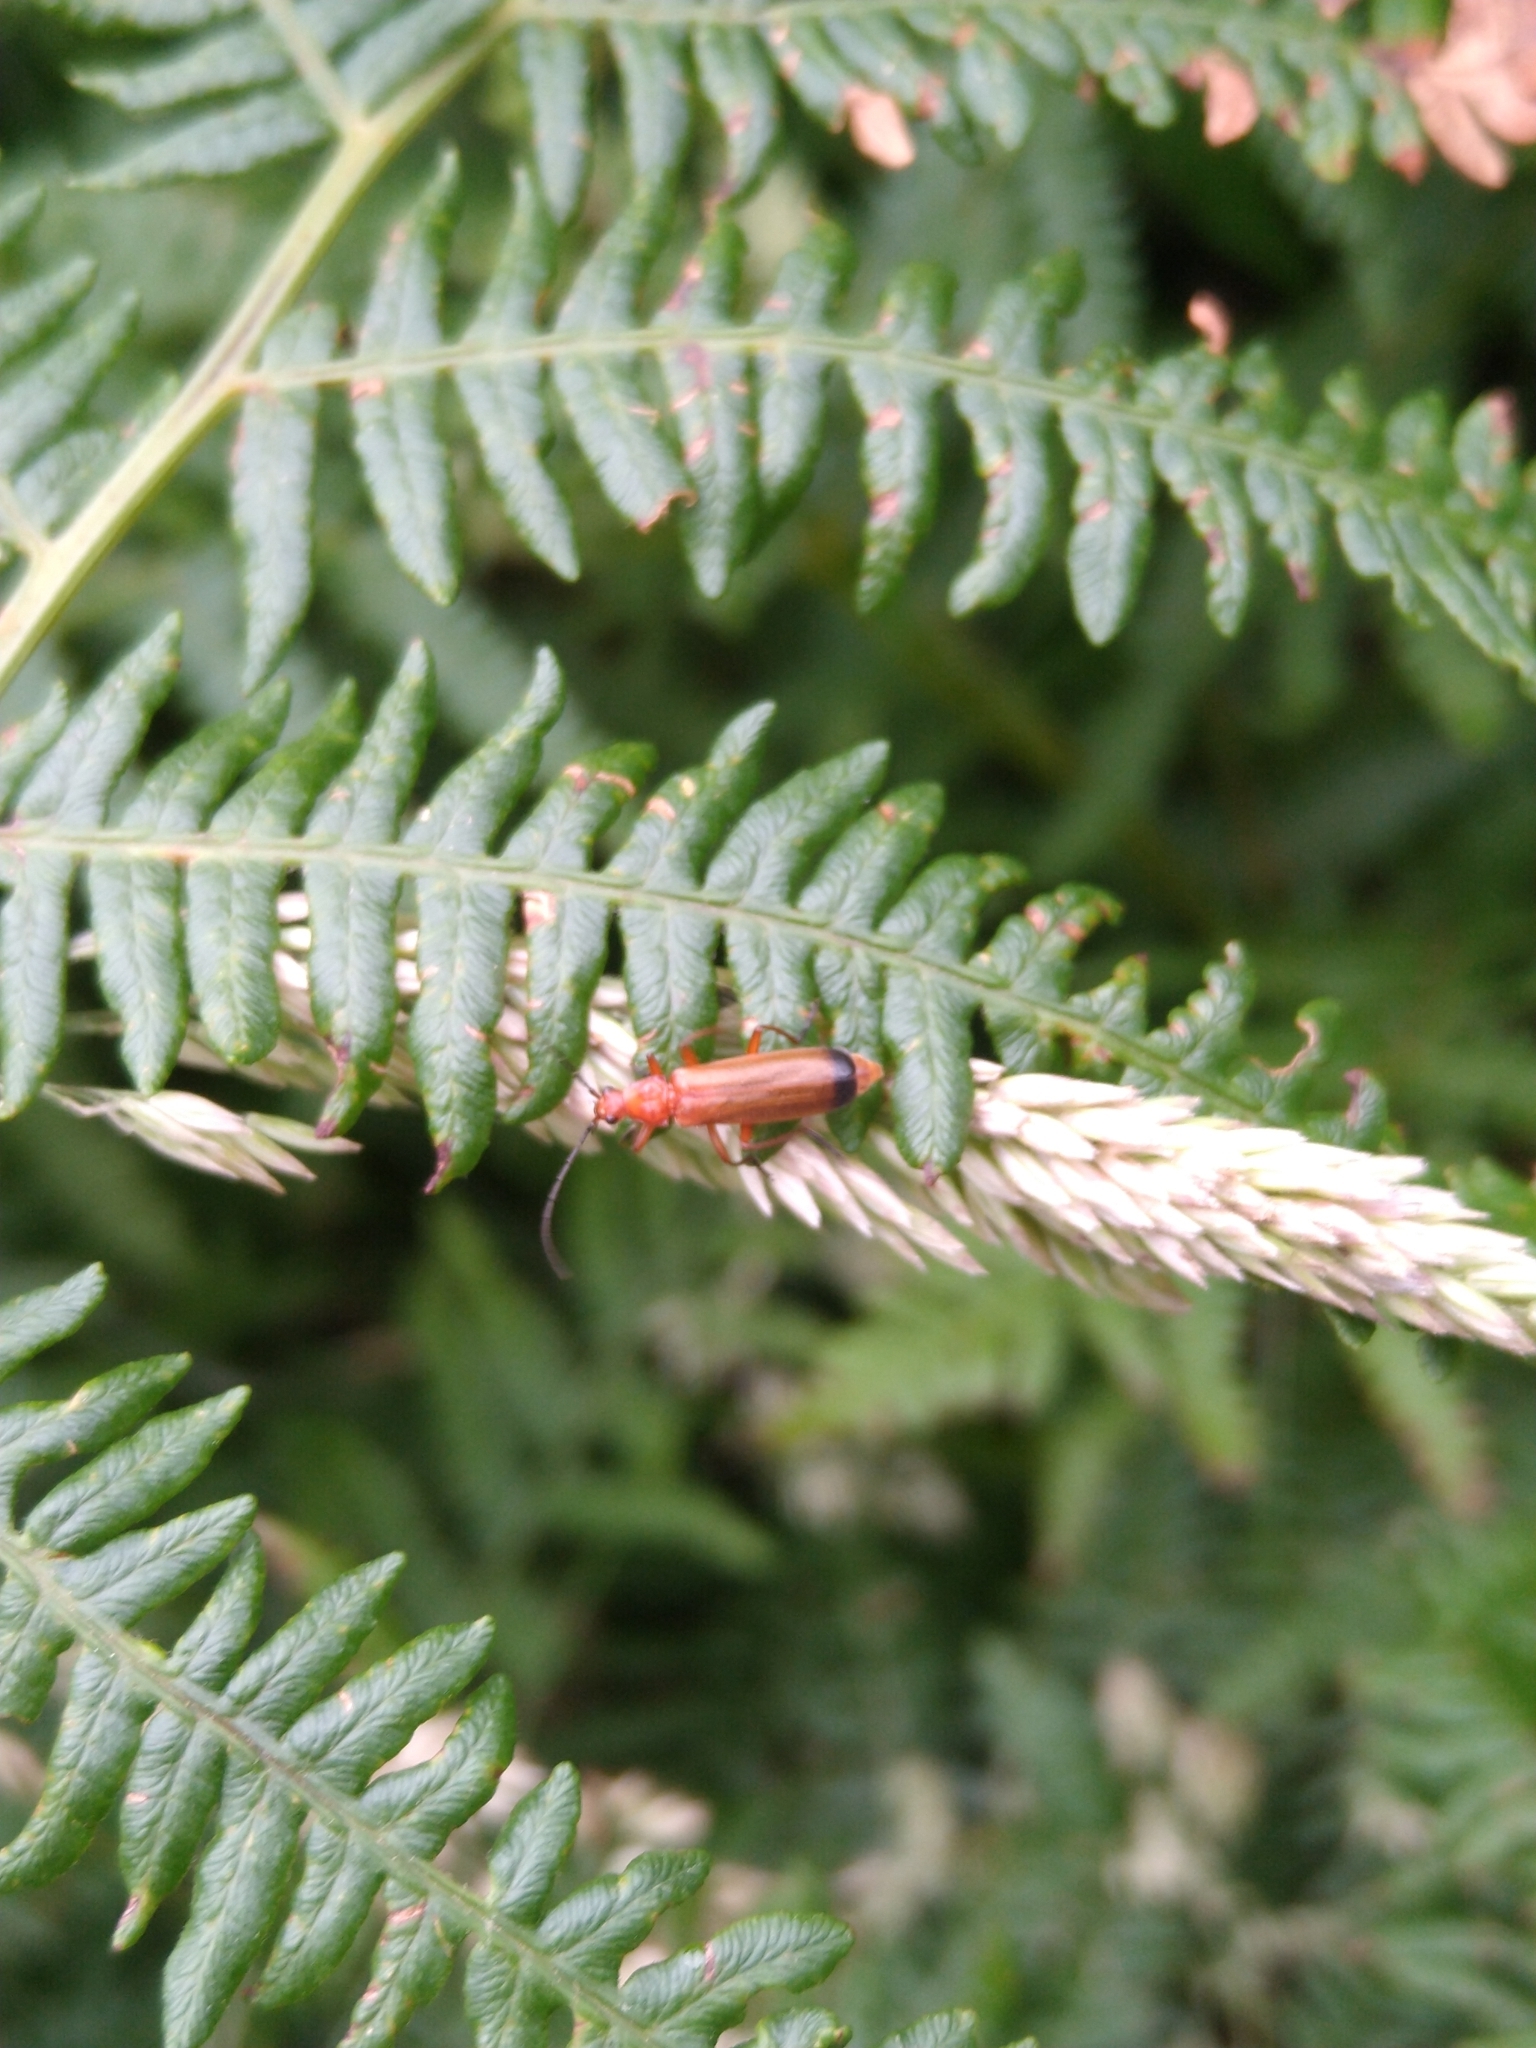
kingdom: Animalia
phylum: Arthropoda
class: Insecta
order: Coleoptera
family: Cantharidae
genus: Rhagonycha
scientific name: Rhagonycha fulva
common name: Common red soldier beetle
